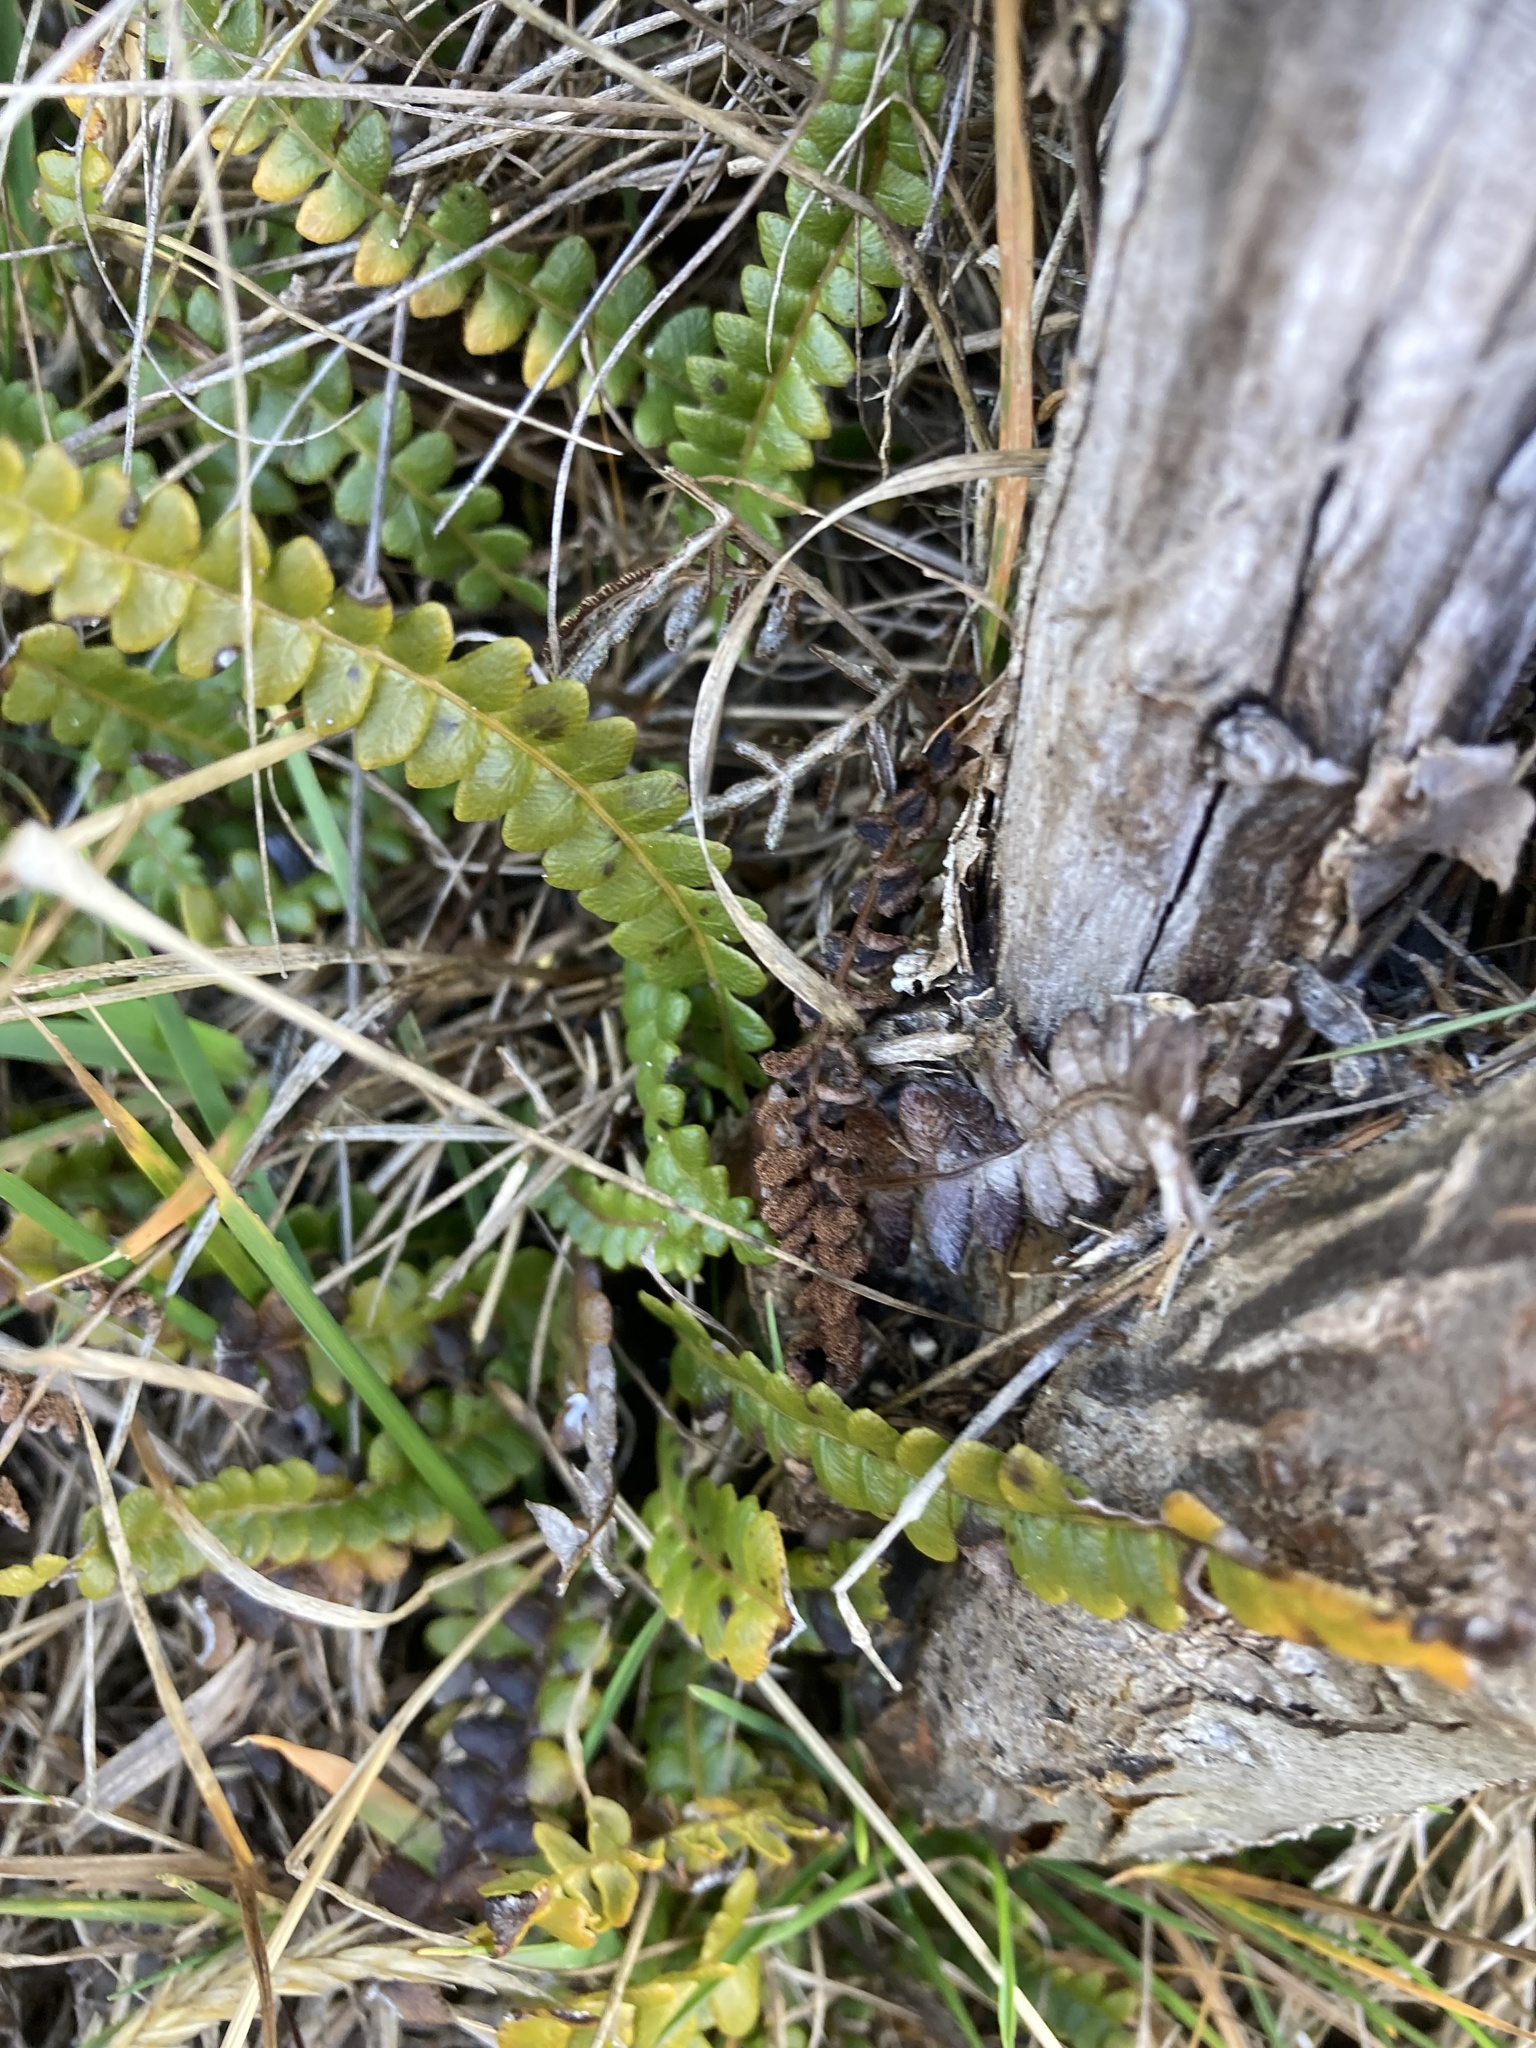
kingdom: Plantae
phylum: Tracheophyta
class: Polypodiopsida
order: Polypodiales
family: Blechnaceae
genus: Austroblechnum
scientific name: Austroblechnum penna-marina
